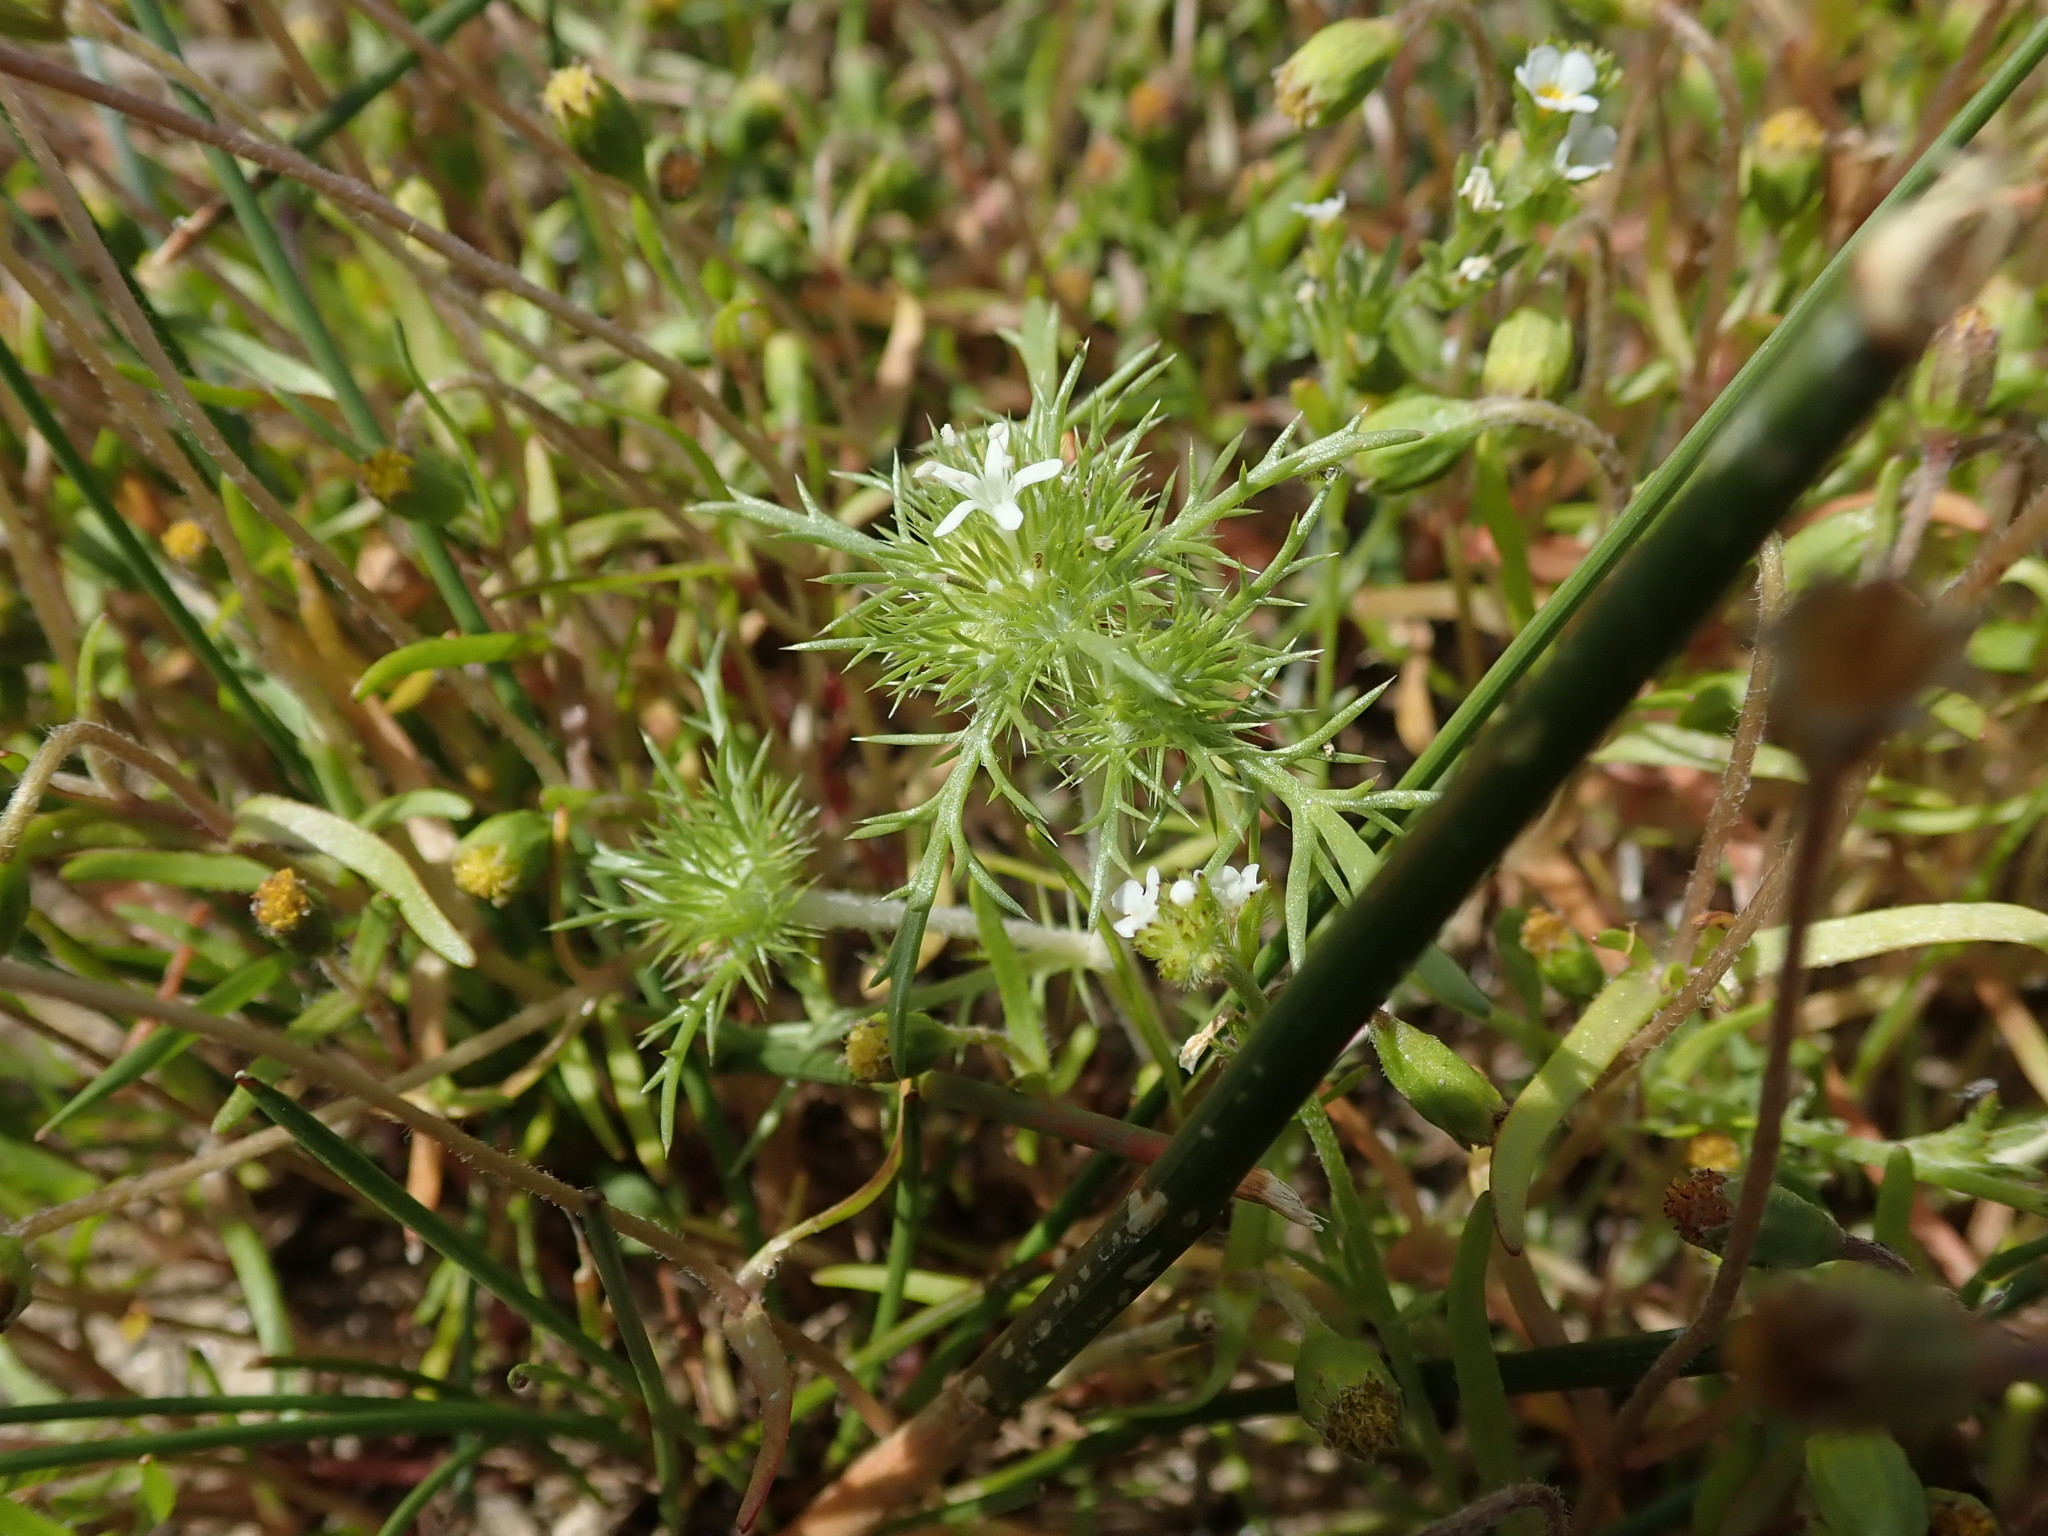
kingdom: Plantae
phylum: Tracheophyta
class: Magnoliopsida
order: Ericales
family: Polemoniaceae
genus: Navarretia
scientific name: Navarretia leucocephala
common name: White-flowered navarretia
